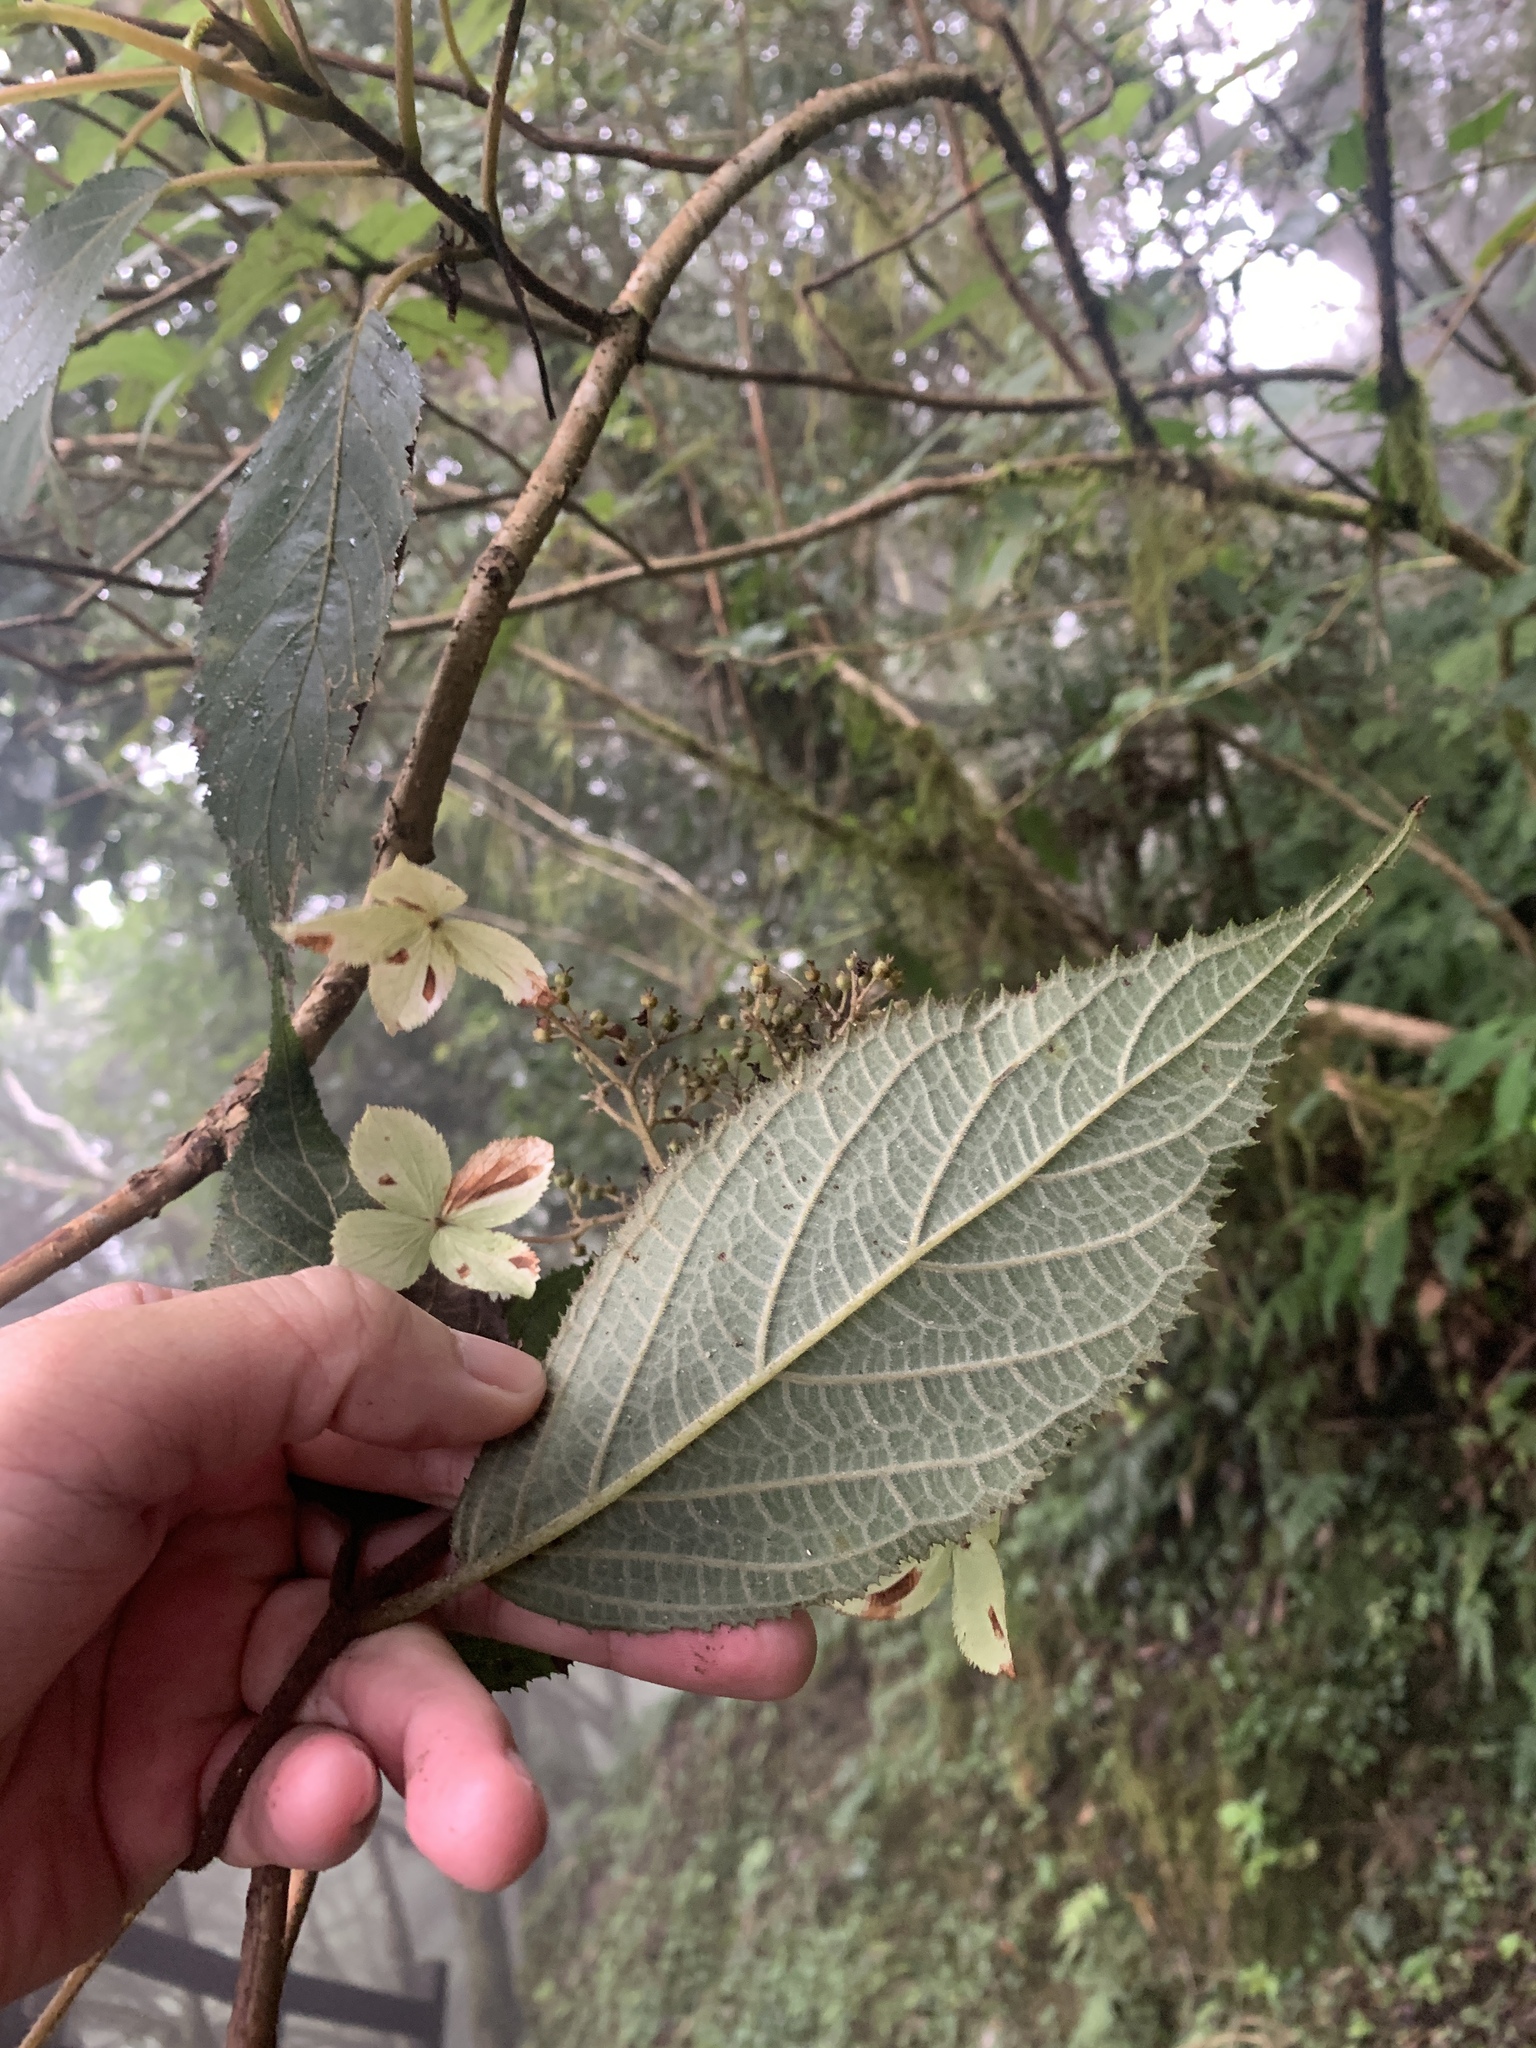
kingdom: Plantae
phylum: Tracheophyta
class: Magnoliopsida
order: Cornales
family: Hydrangeaceae
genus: Hydrangea
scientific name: Hydrangea aspera
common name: Rough-leaf hydrangea
